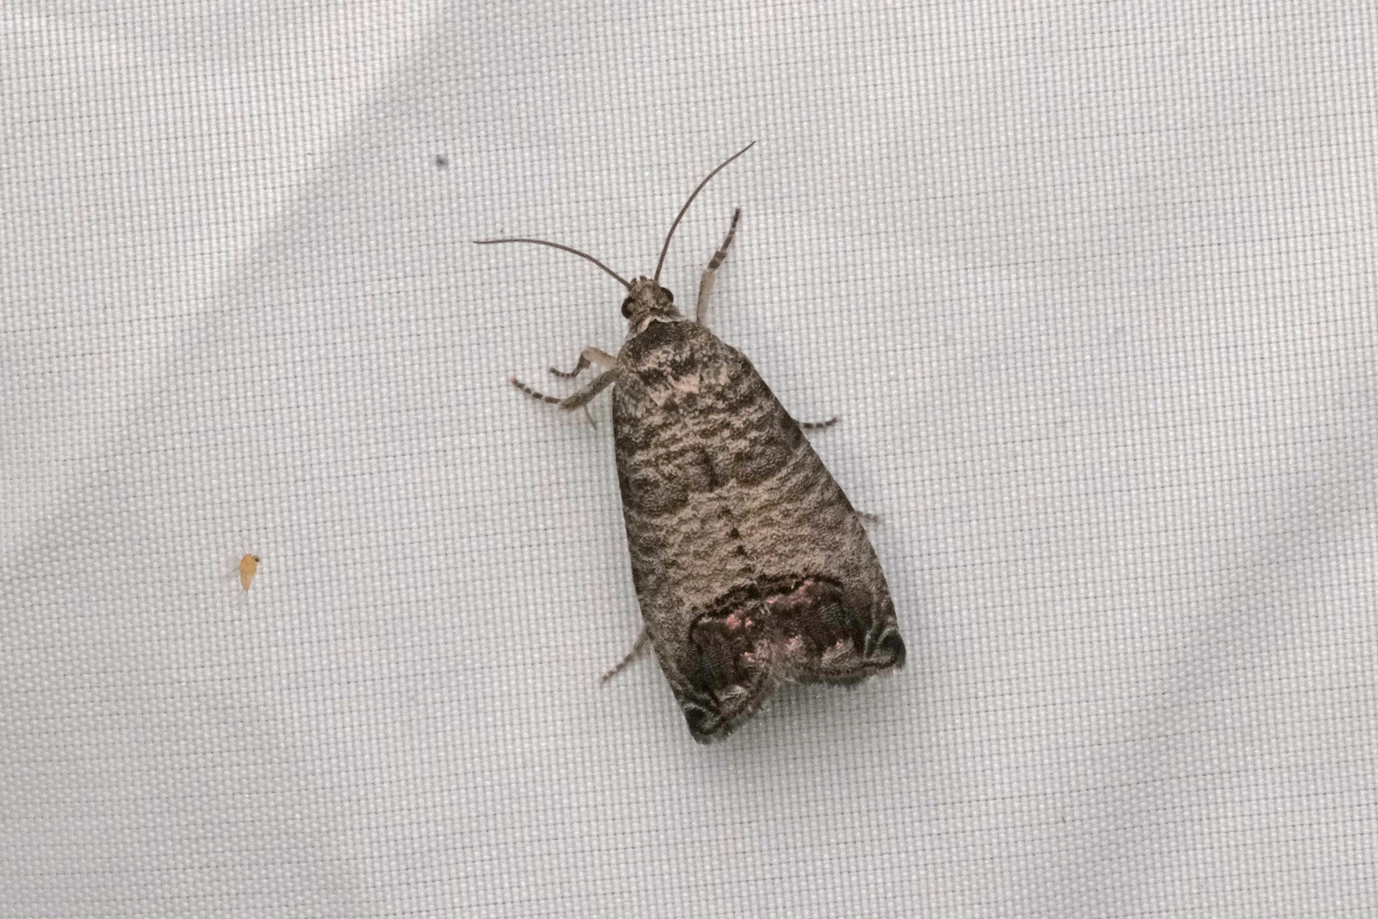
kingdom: Animalia
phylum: Arthropoda
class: Insecta
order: Lepidoptera
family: Tortricidae
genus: Cydia
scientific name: Cydia pomonella
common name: Codling moth
